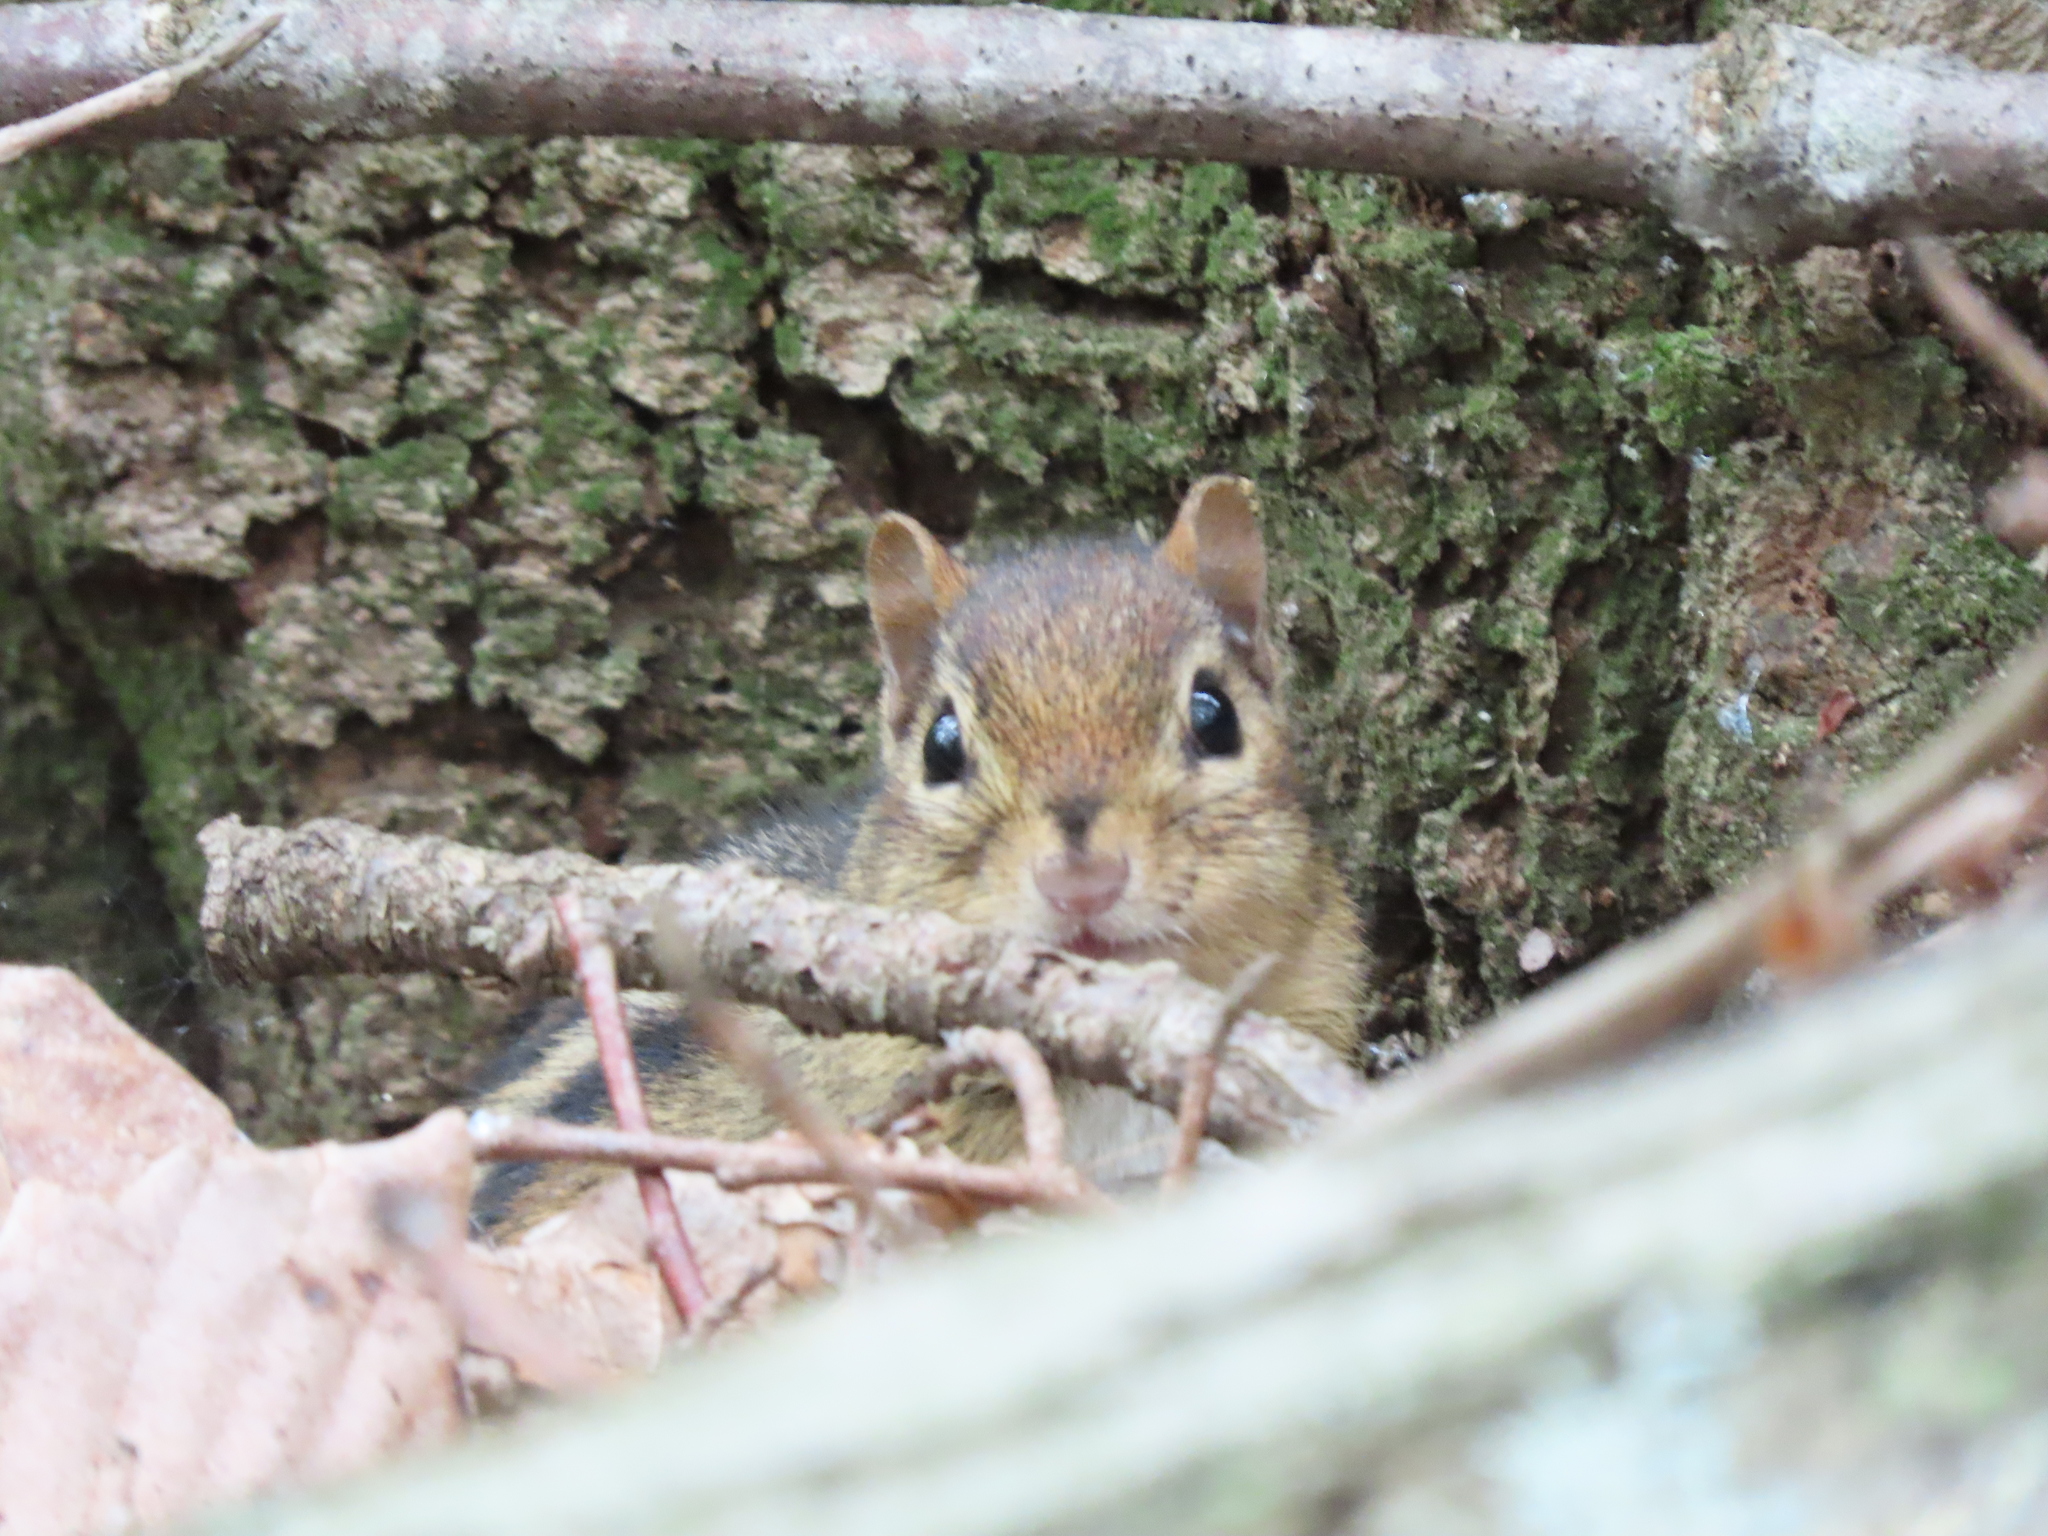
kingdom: Animalia
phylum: Chordata
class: Mammalia
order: Rodentia
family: Sciuridae
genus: Tamias
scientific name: Tamias striatus
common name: Eastern chipmunk
